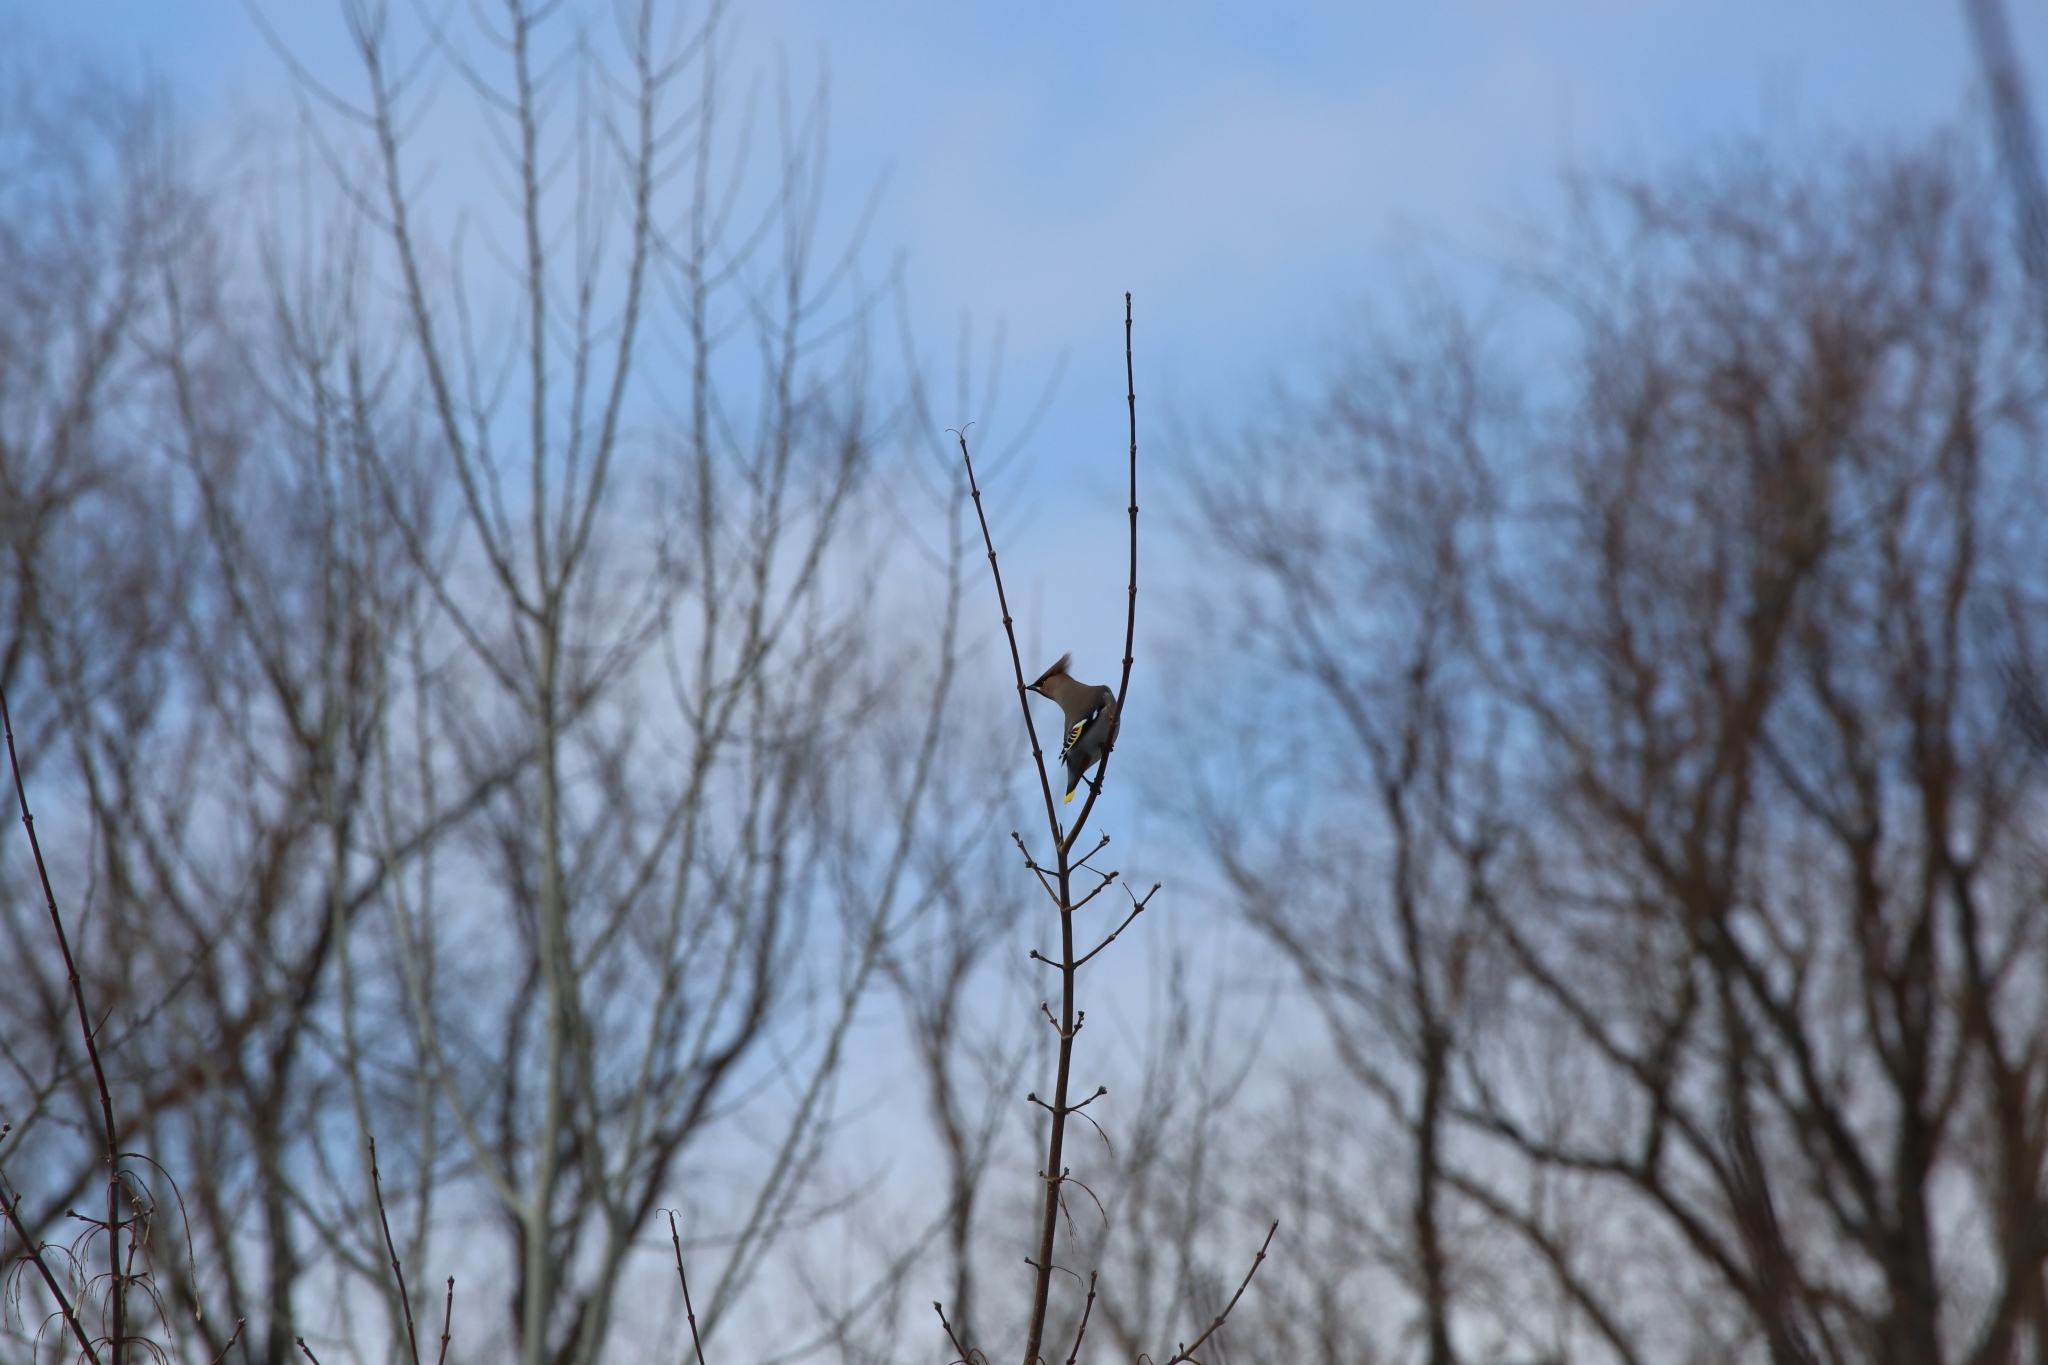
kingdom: Animalia
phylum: Chordata
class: Aves
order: Passeriformes
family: Bombycillidae
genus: Bombycilla
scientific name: Bombycilla garrulus
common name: Bohemian waxwing
